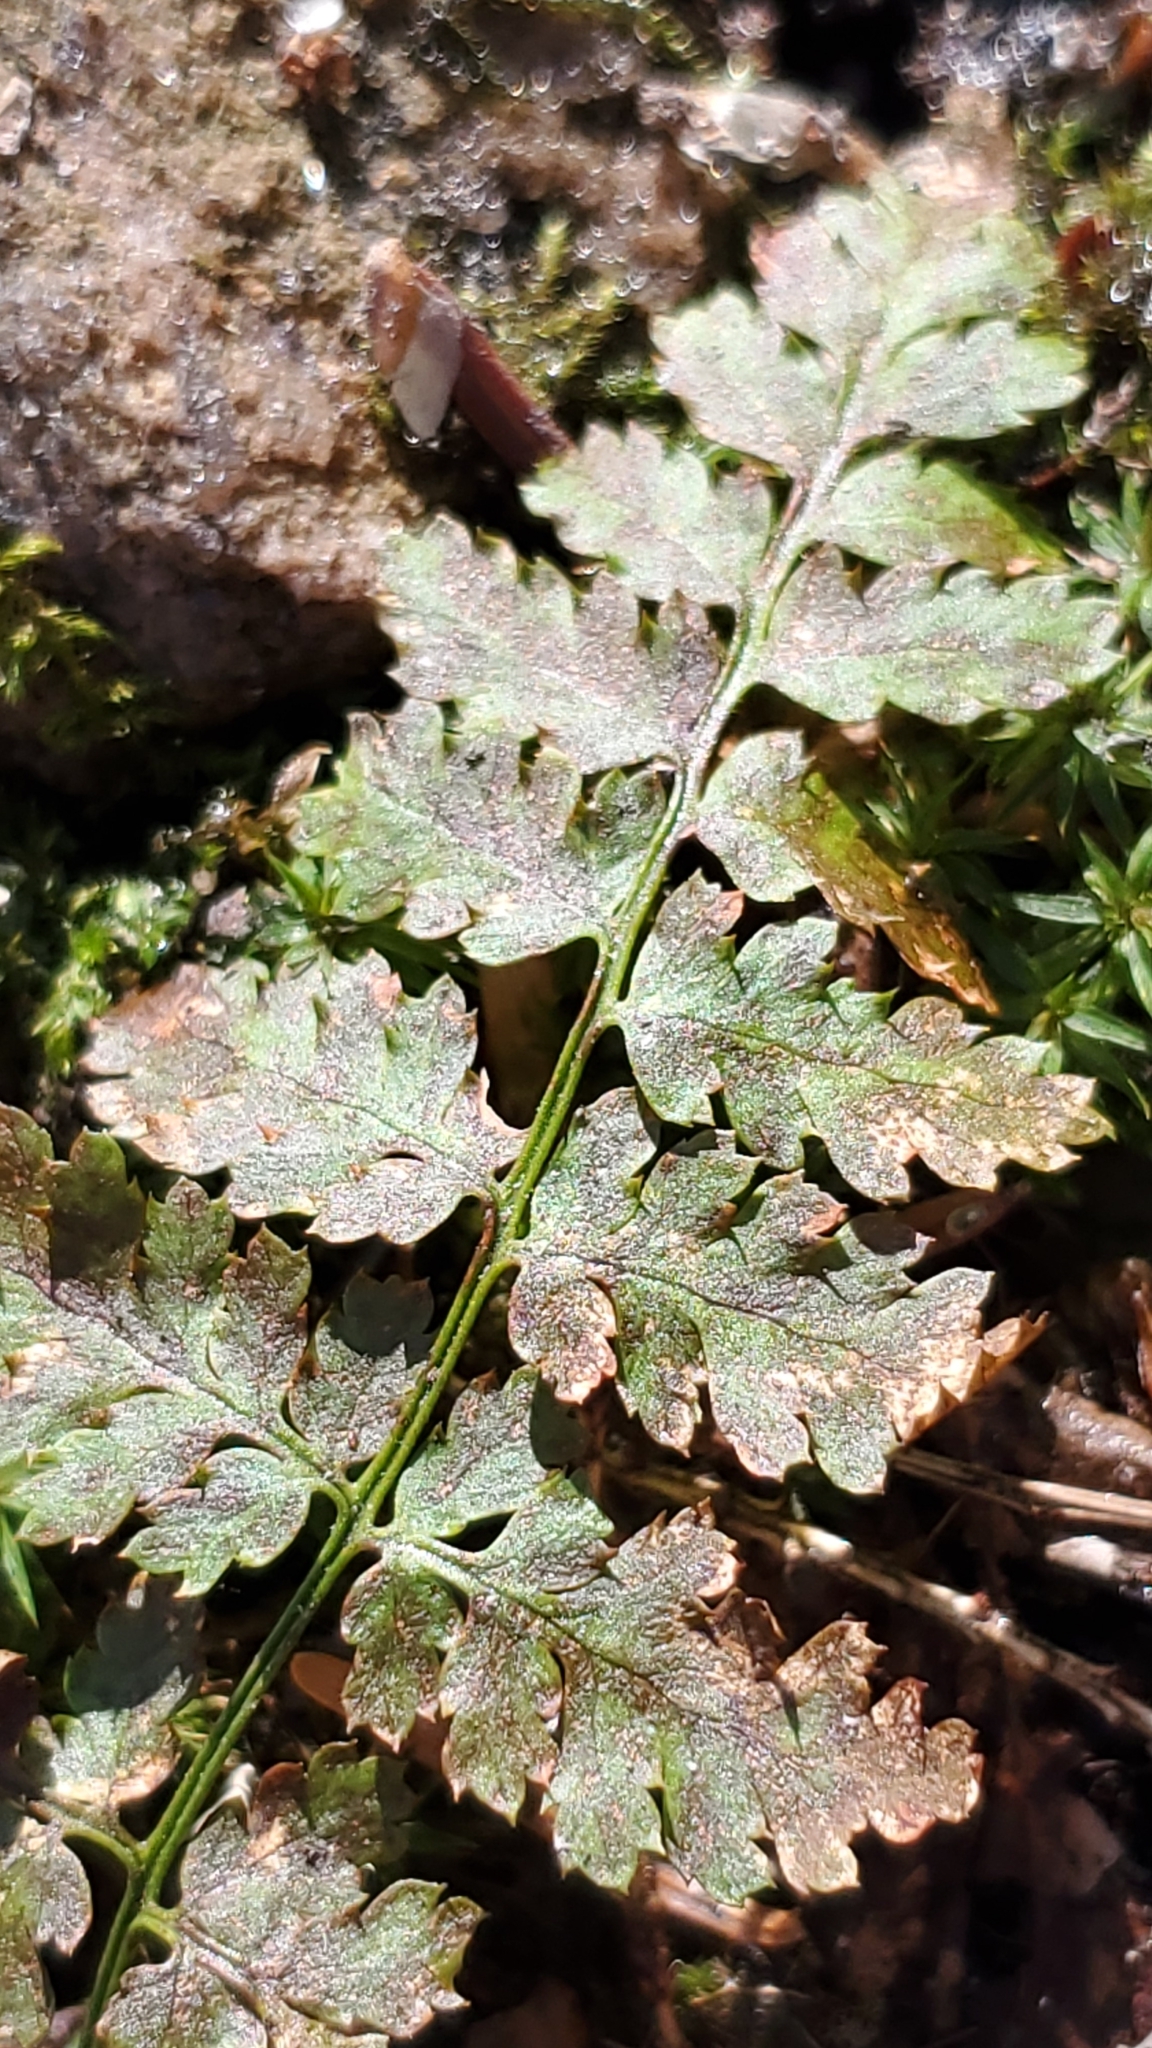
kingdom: Plantae
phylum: Tracheophyta
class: Polypodiopsida
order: Polypodiales
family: Dryopteridaceae
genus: Dryopteris
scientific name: Dryopteris intermedia
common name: Evergreen wood fern
